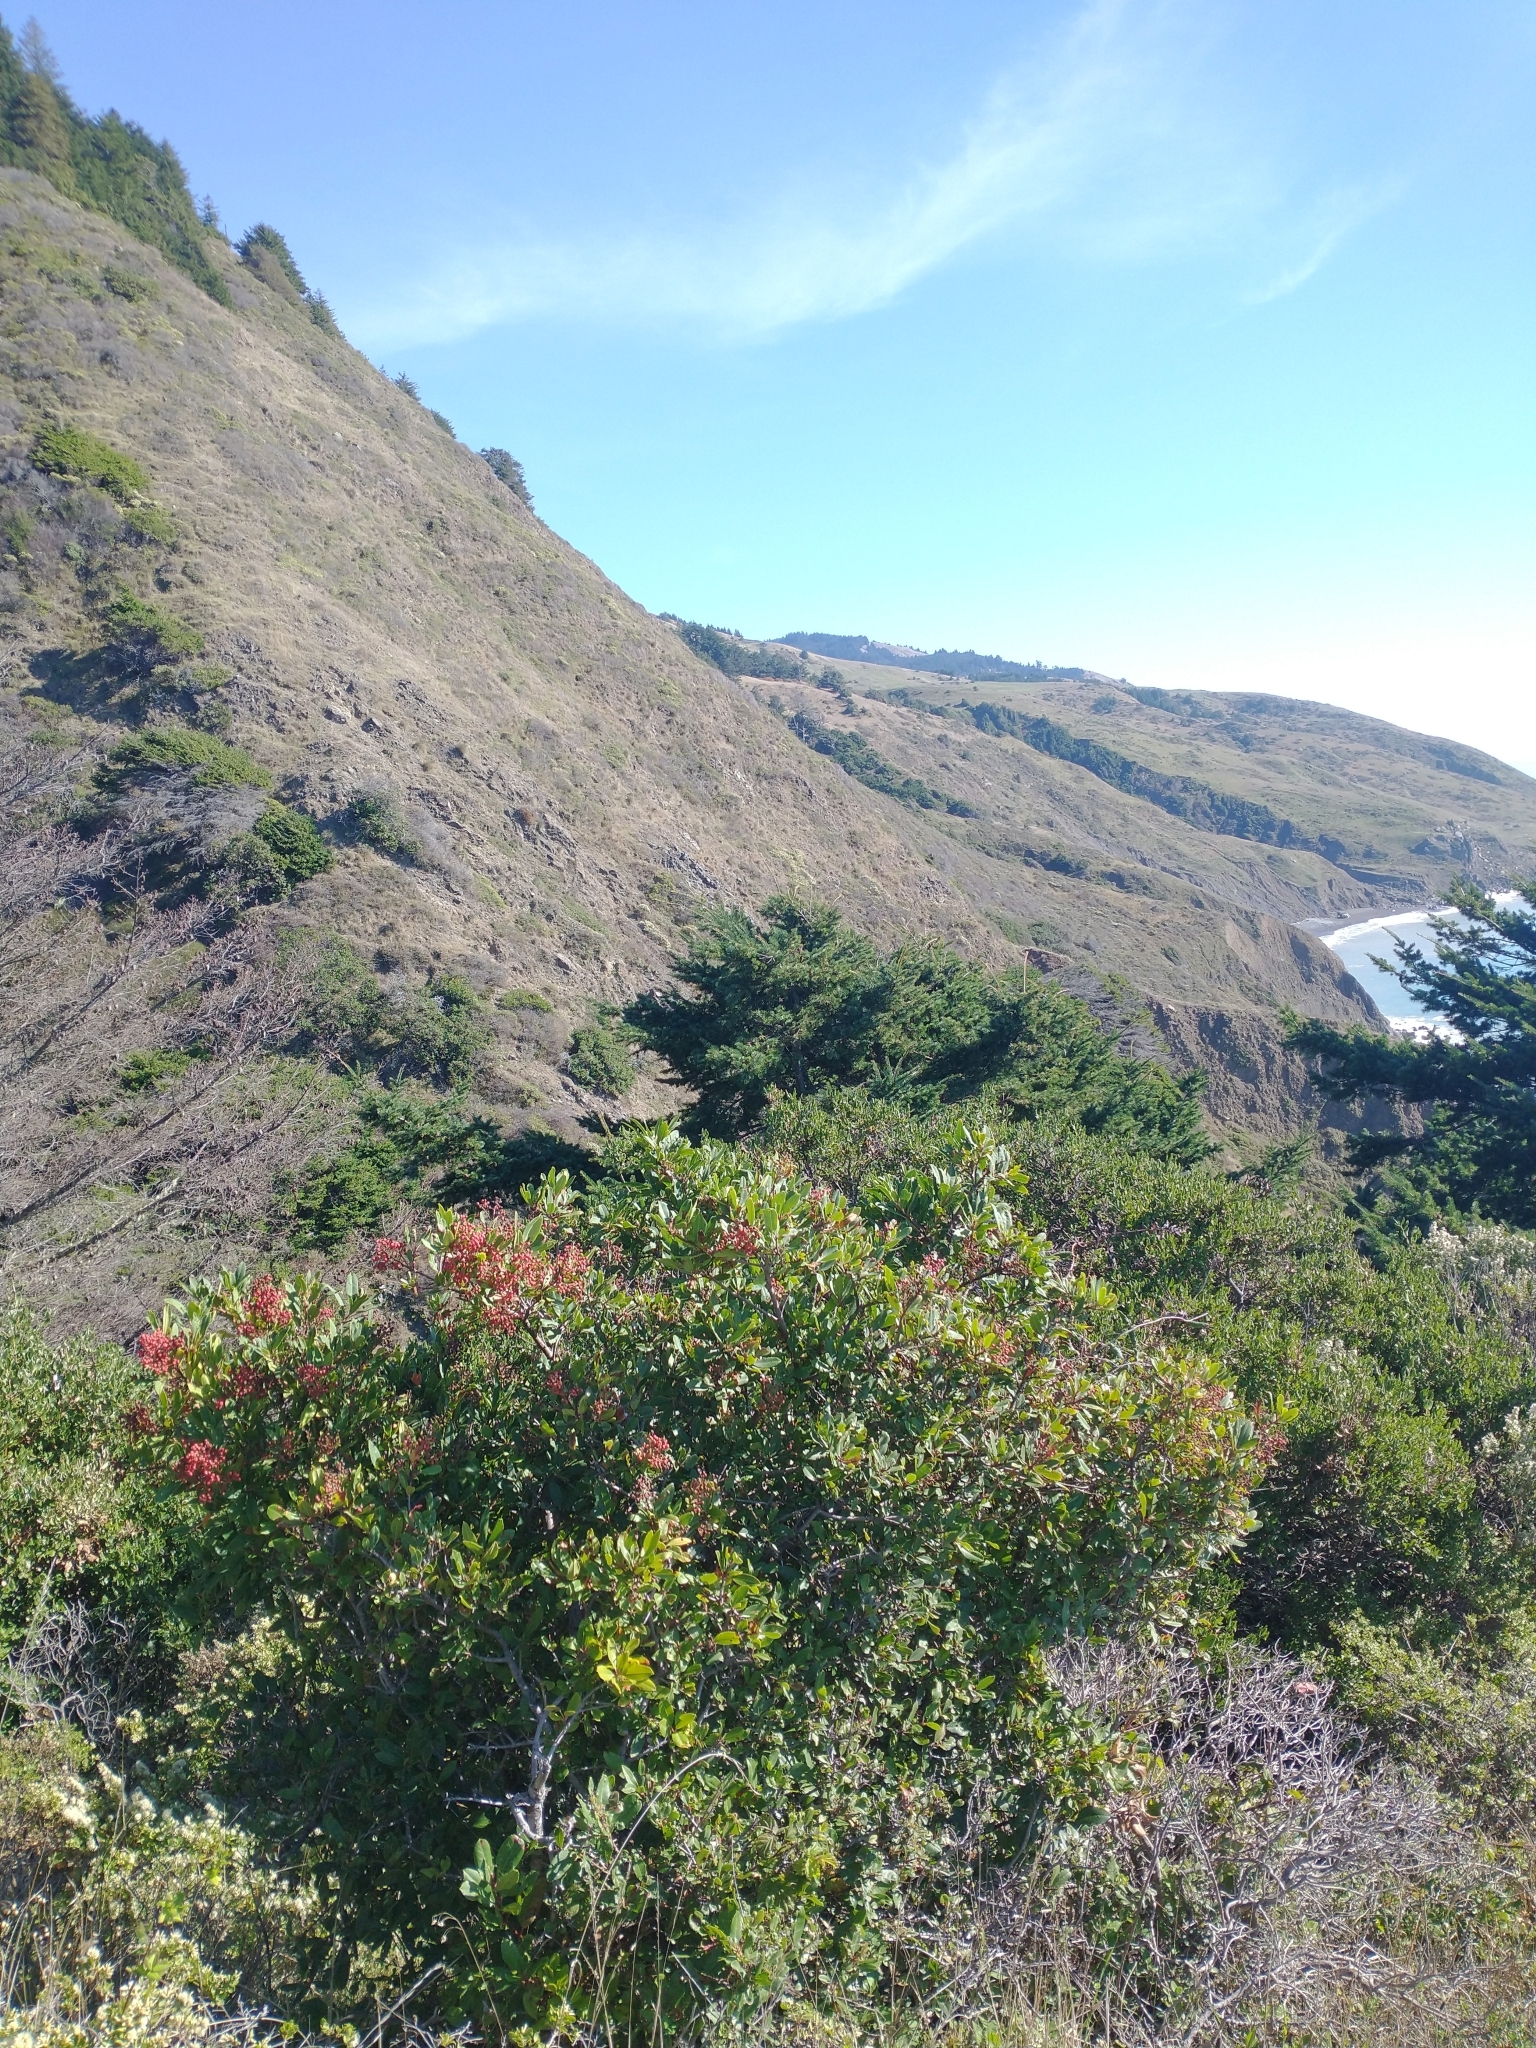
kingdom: Plantae
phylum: Tracheophyta
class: Magnoliopsida
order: Rosales
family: Rosaceae
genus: Heteromeles
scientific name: Heteromeles arbutifolia
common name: California-holly
